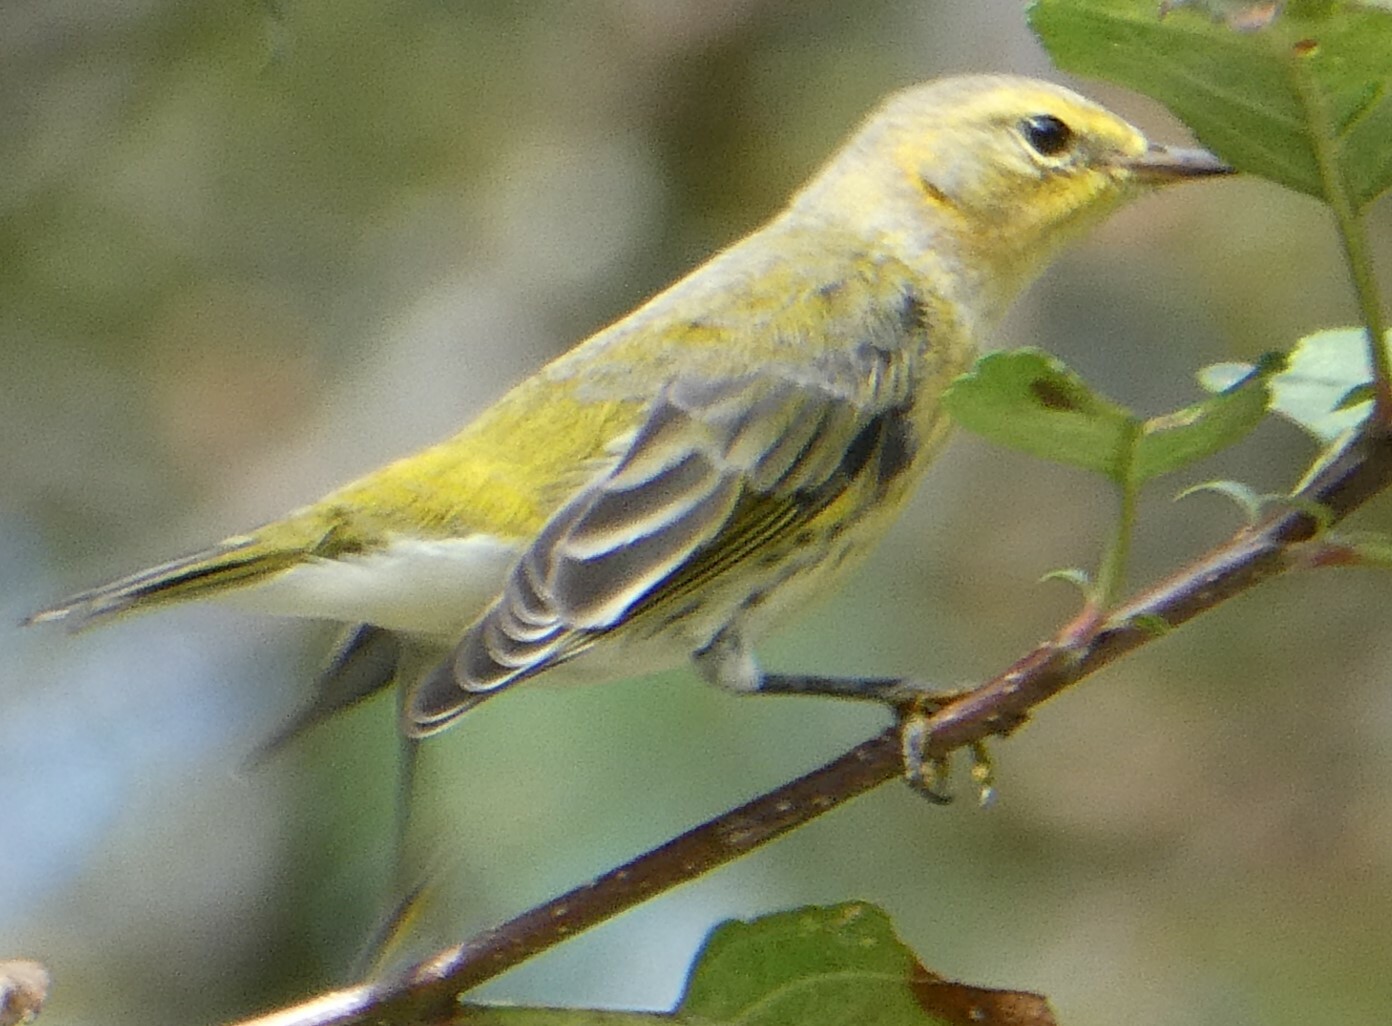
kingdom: Animalia
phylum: Chordata
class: Aves
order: Passeriformes
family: Parulidae
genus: Setophaga
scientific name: Setophaga tigrina
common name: Cape may warbler
